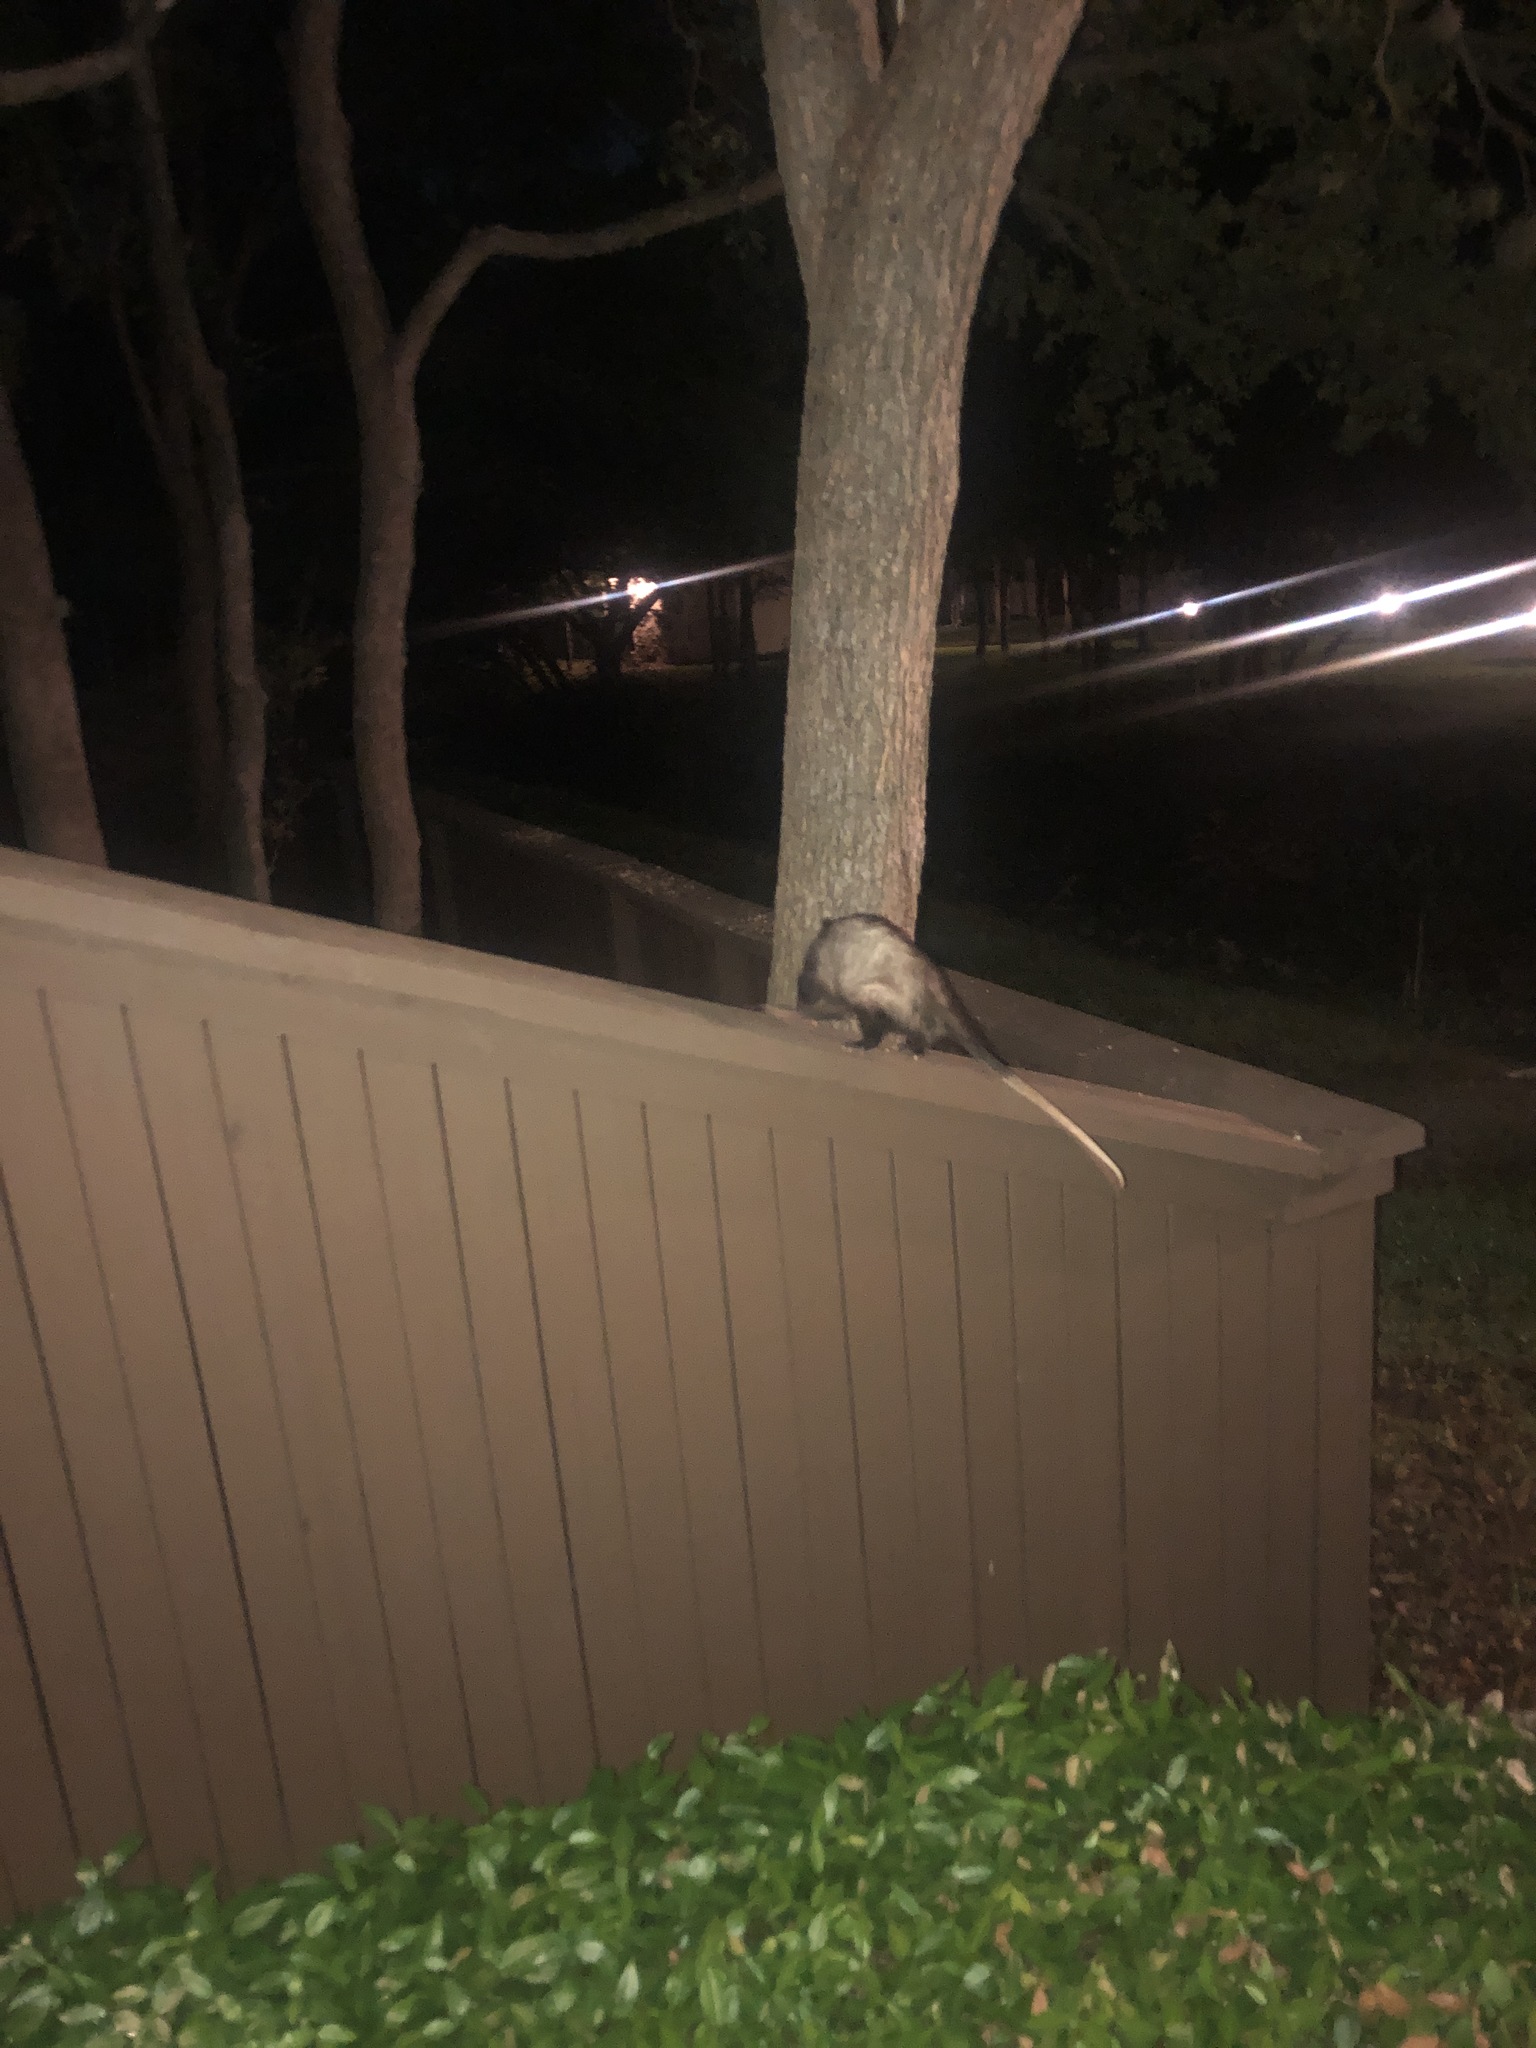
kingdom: Animalia
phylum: Chordata
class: Mammalia
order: Didelphimorphia
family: Didelphidae
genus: Didelphis
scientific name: Didelphis virginiana
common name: Virginia opossum
